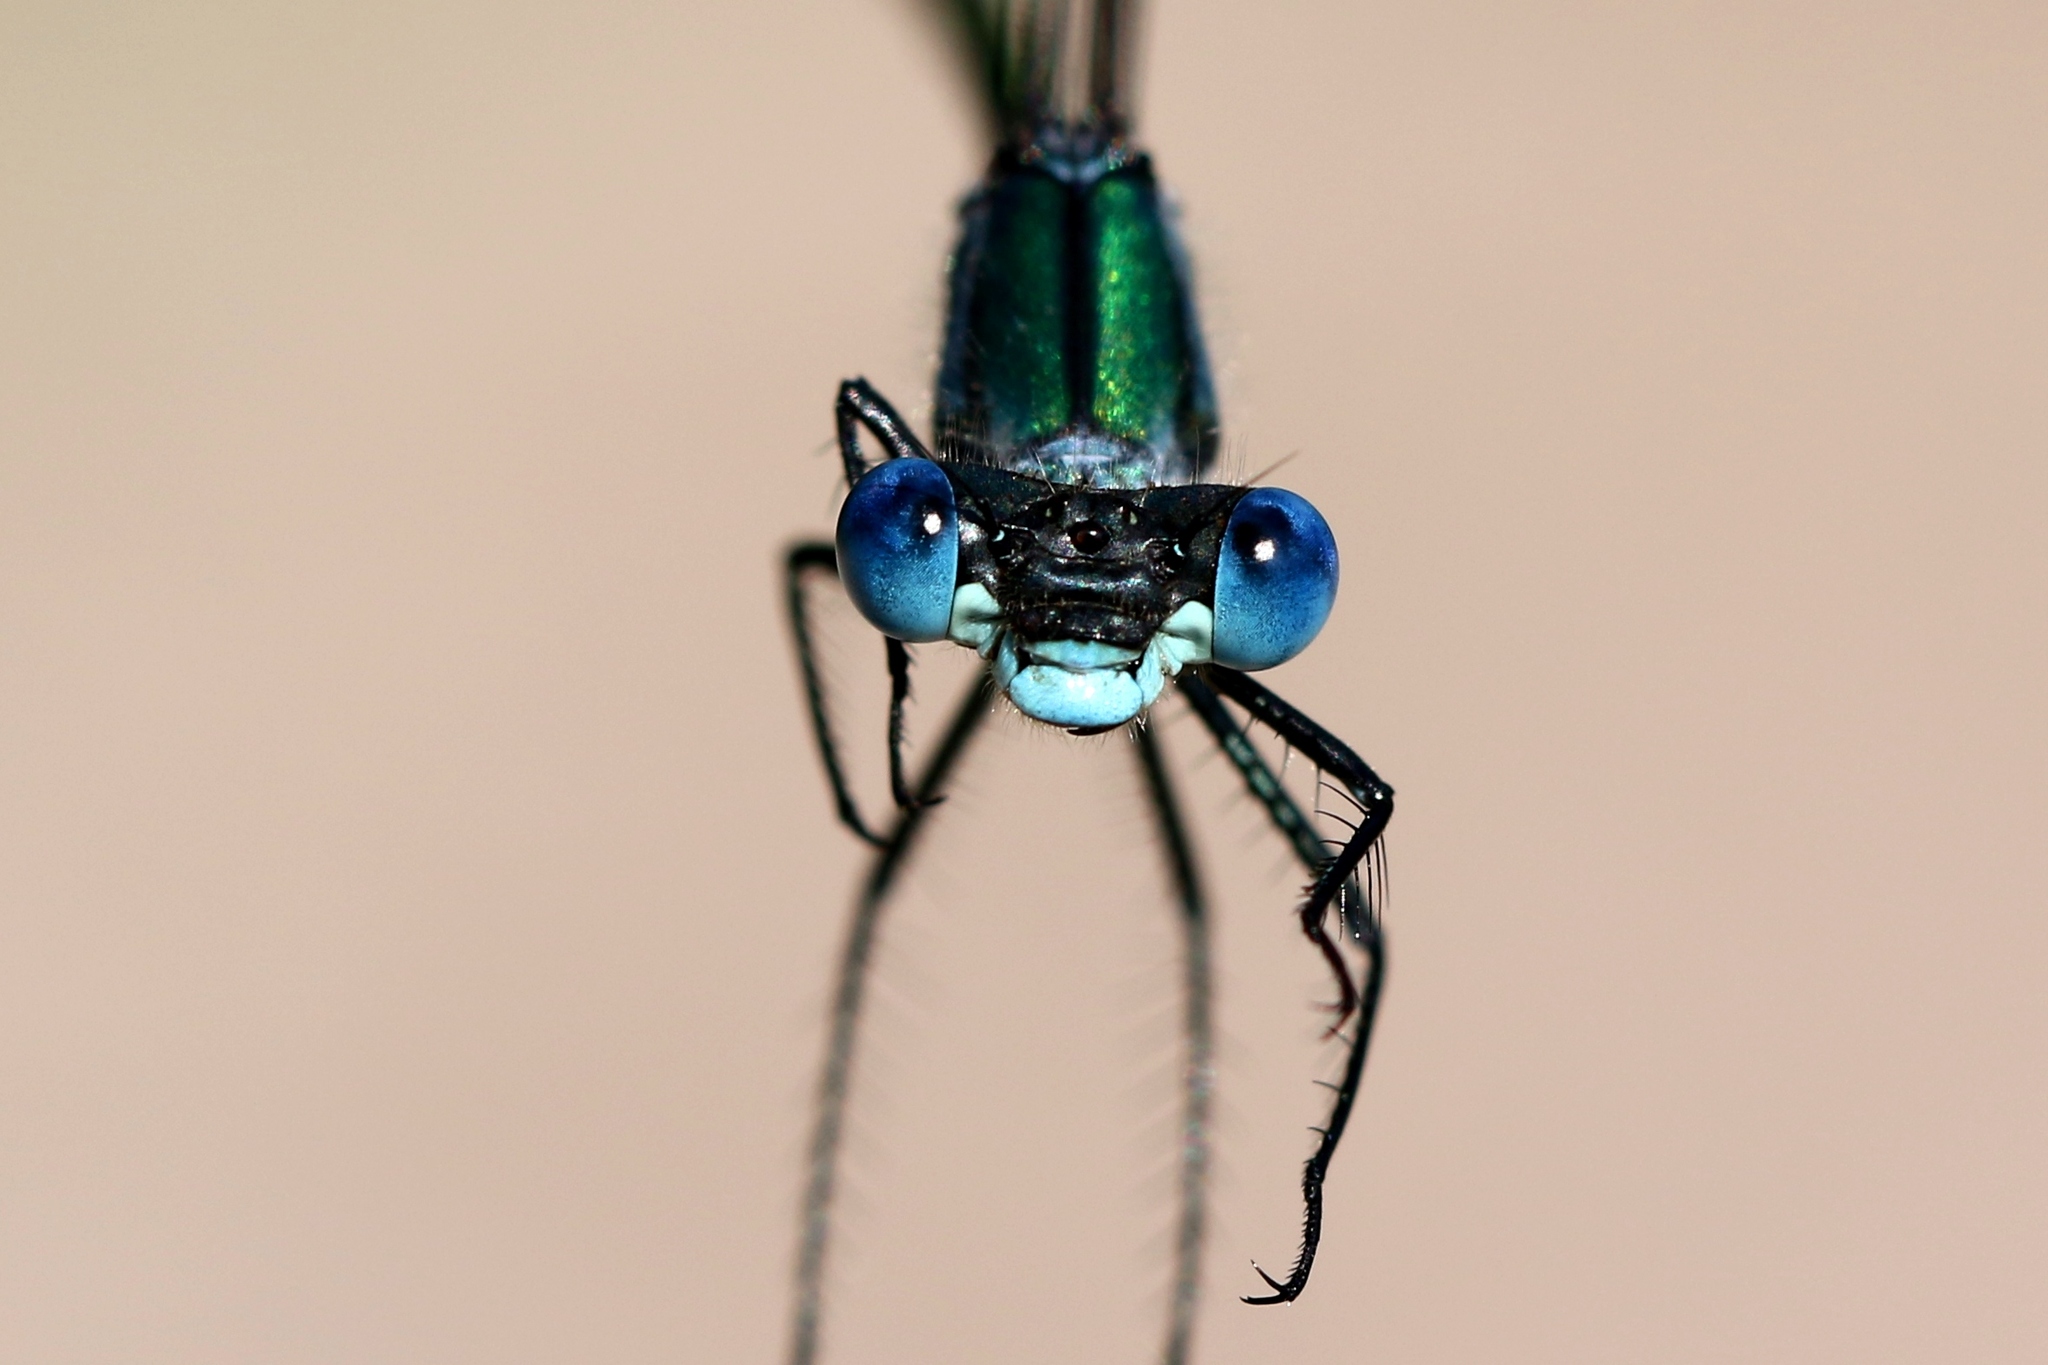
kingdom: Animalia
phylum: Arthropoda
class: Insecta
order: Odonata
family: Lestidae
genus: Lestes
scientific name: Lestes dryas
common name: Scarce emerald damselfly
